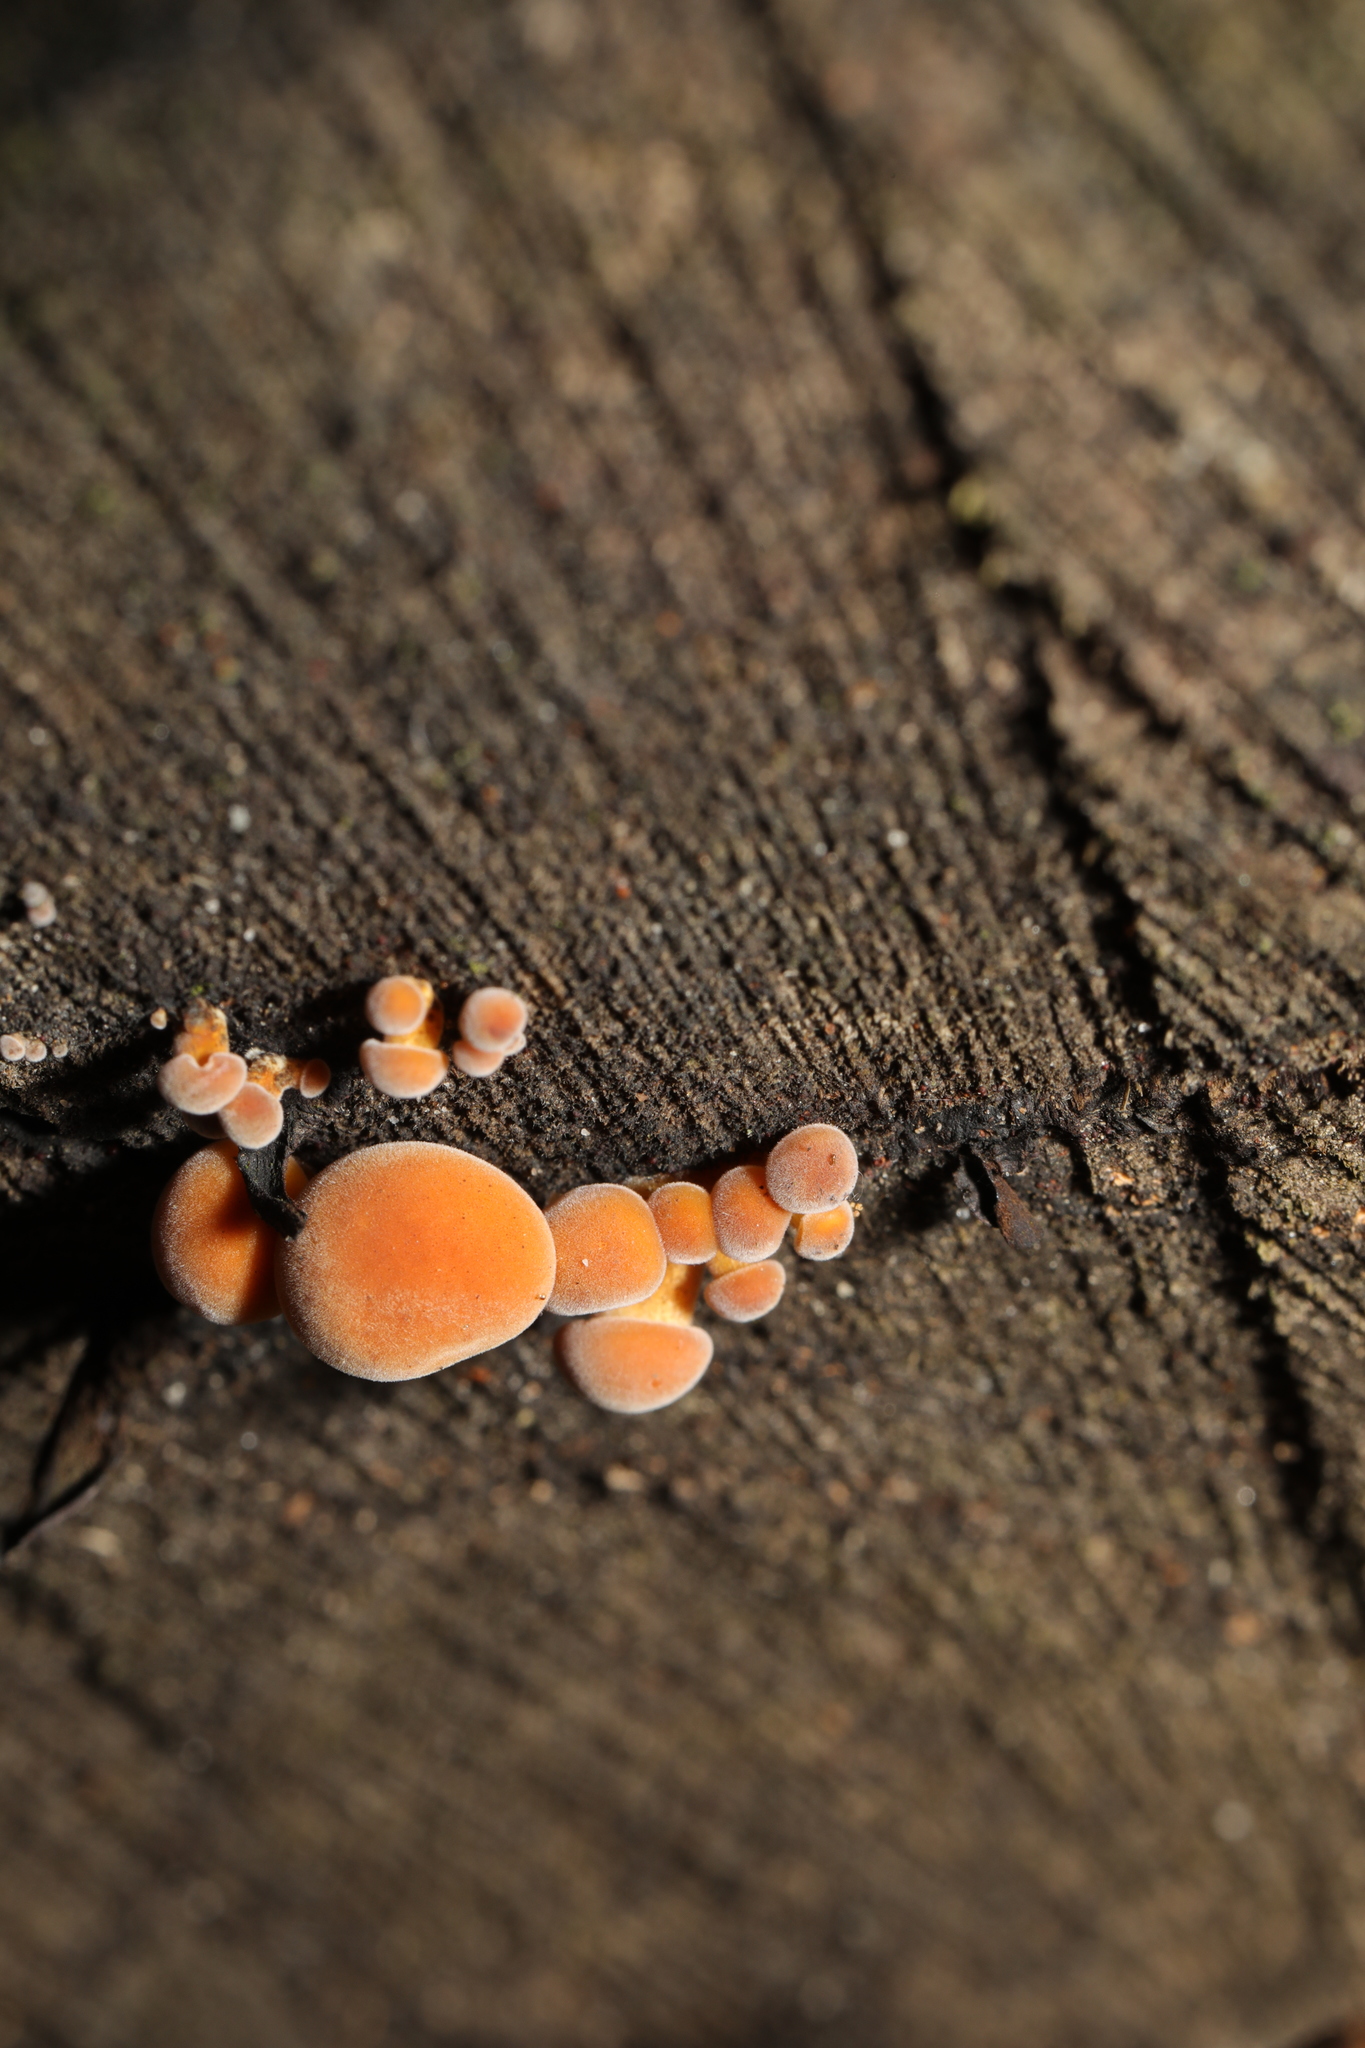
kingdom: Fungi
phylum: Basidiomycota
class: Agaricomycetes
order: Agaricales
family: Physalacriaceae
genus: Flammulina
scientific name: Flammulina
